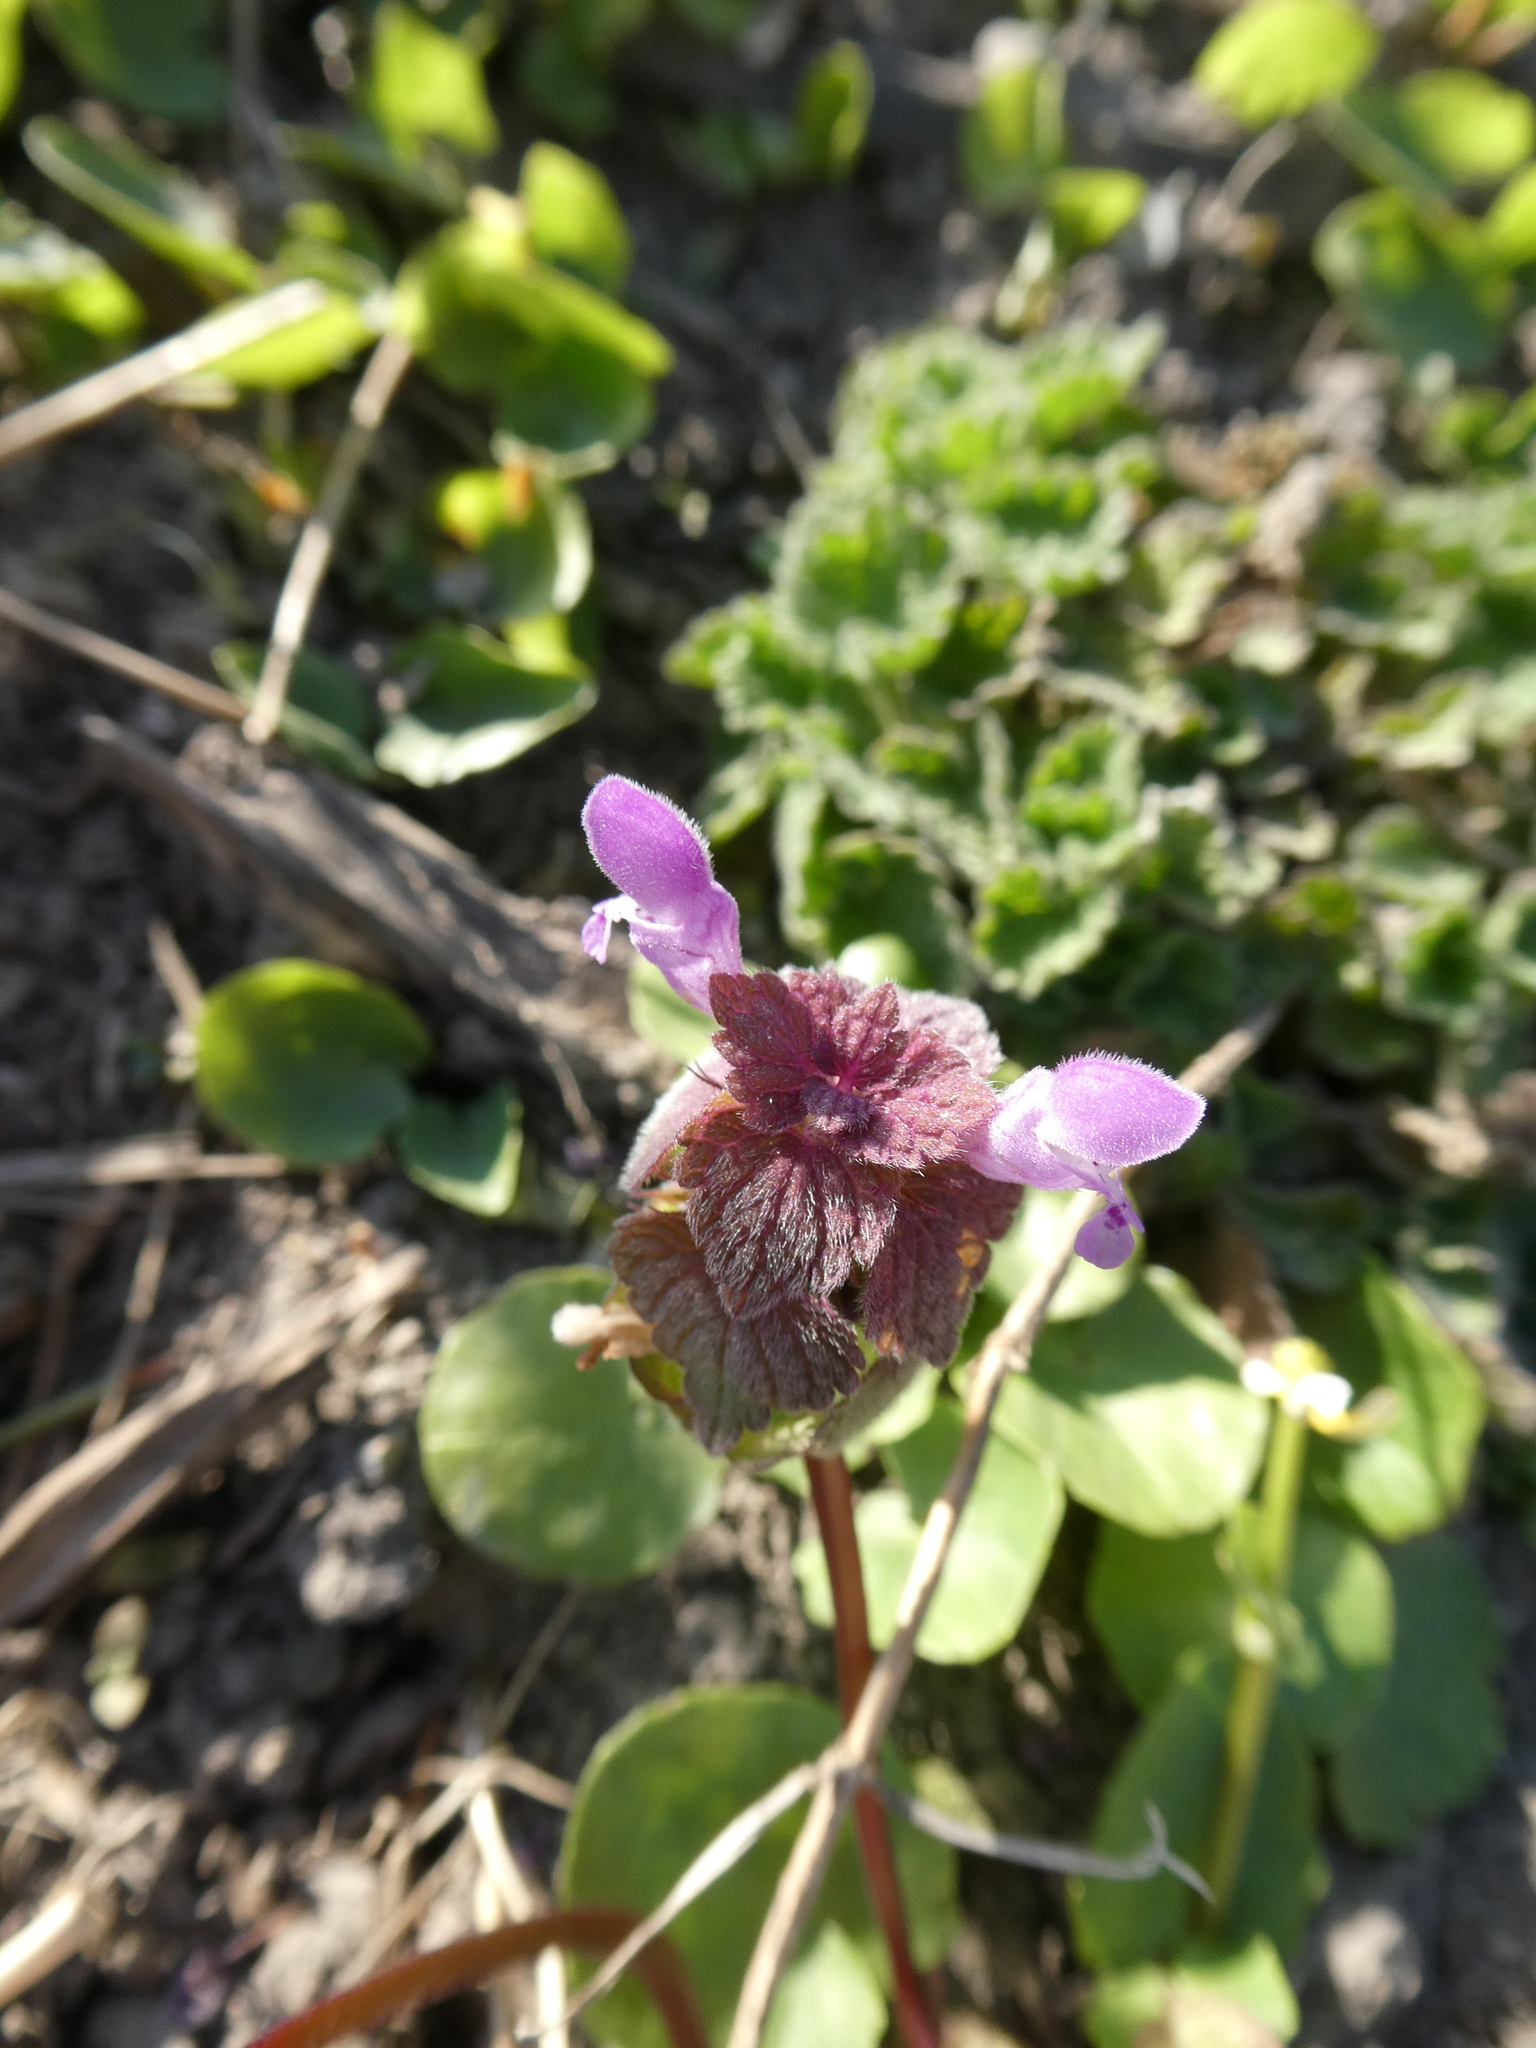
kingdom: Plantae
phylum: Tracheophyta
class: Magnoliopsida
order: Lamiales
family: Lamiaceae
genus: Lamium
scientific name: Lamium purpureum
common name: Red dead-nettle
